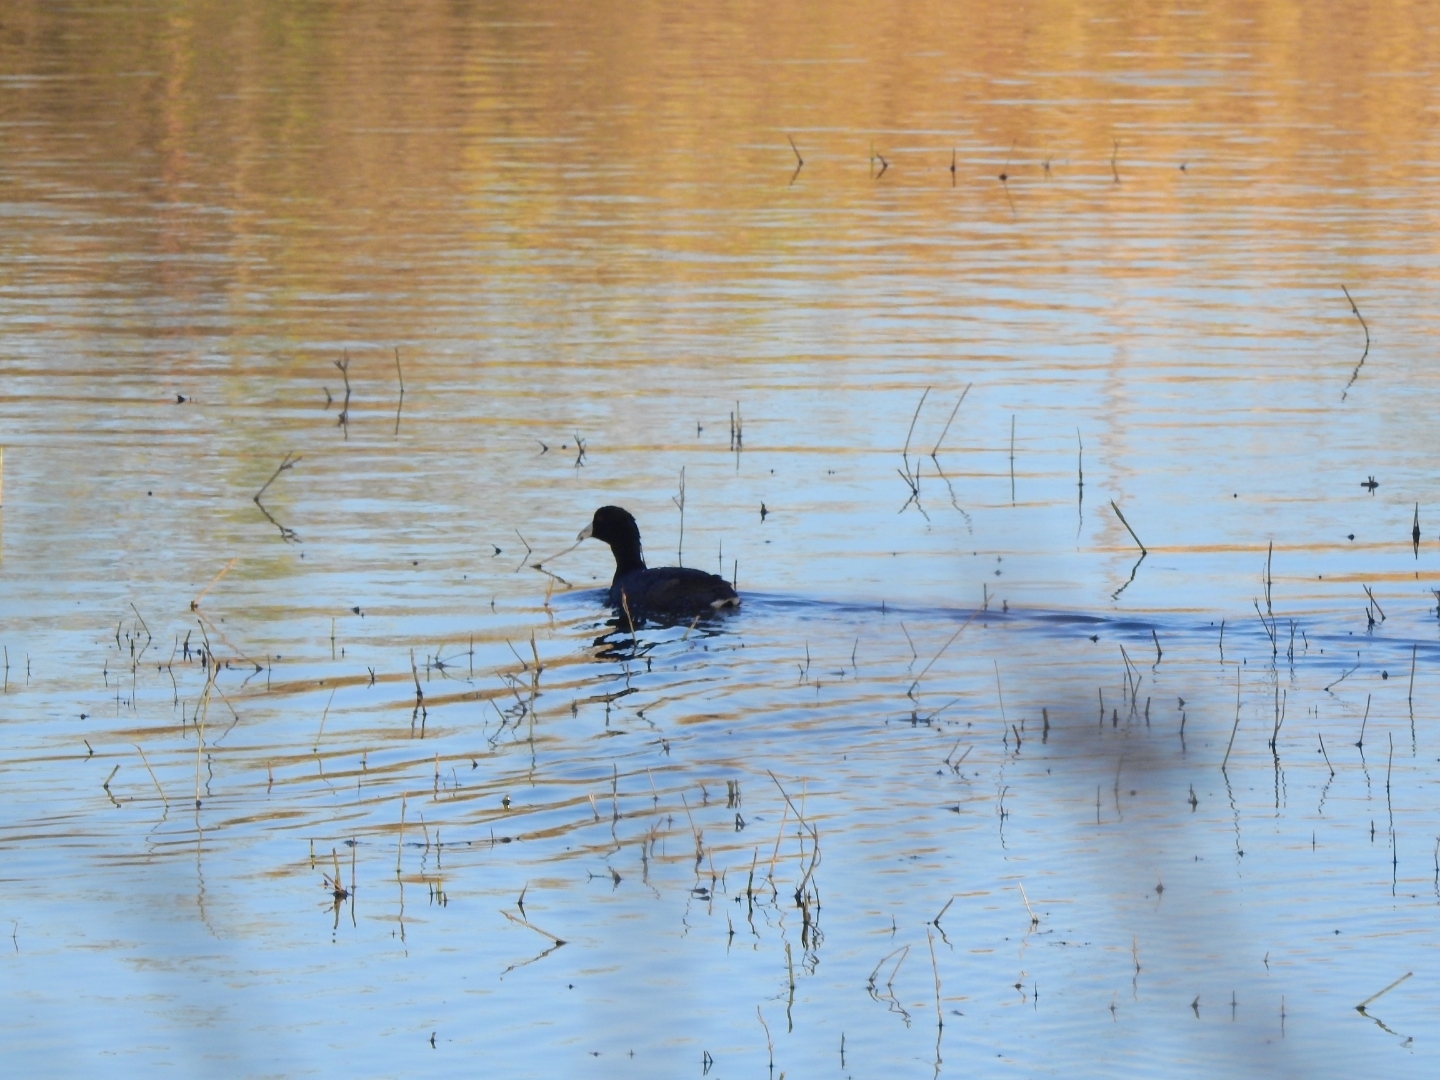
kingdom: Animalia
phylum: Chordata
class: Aves
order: Gruiformes
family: Rallidae
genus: Fulica
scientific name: Fulica americana
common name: American coot
